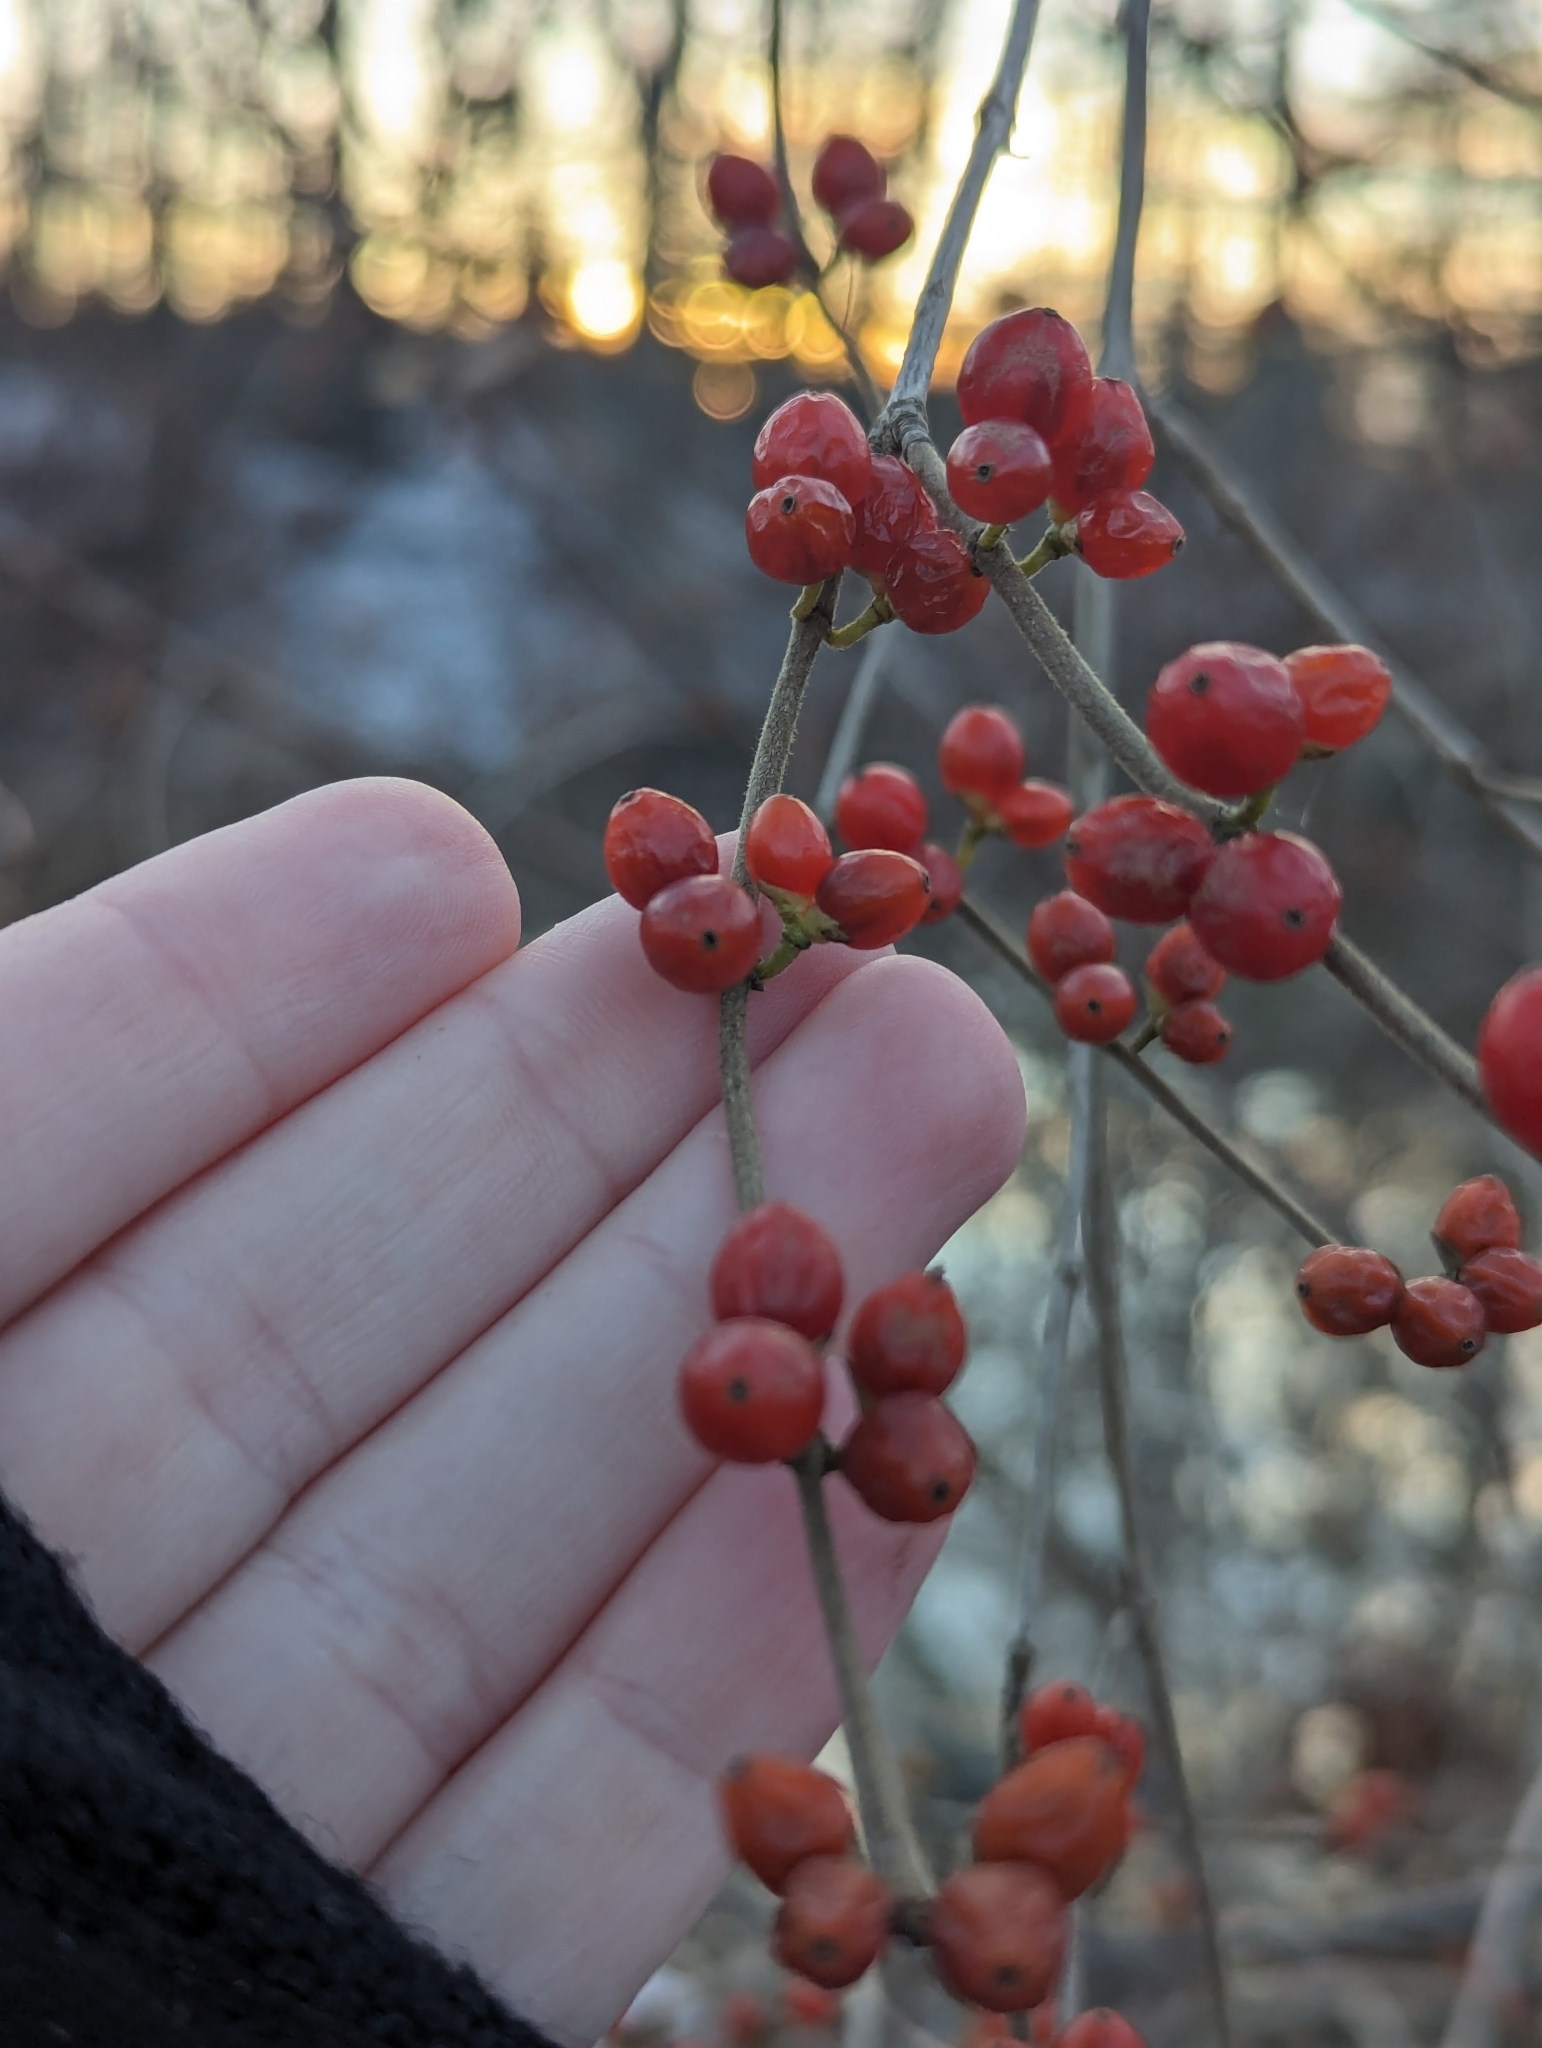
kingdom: Plantae
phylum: Tracheophyta
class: Magnoliopsida
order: Dipsacales
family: Caprifoliaceae
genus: Lonicera
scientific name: Lonicera maackii
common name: Amur honeysuckle
